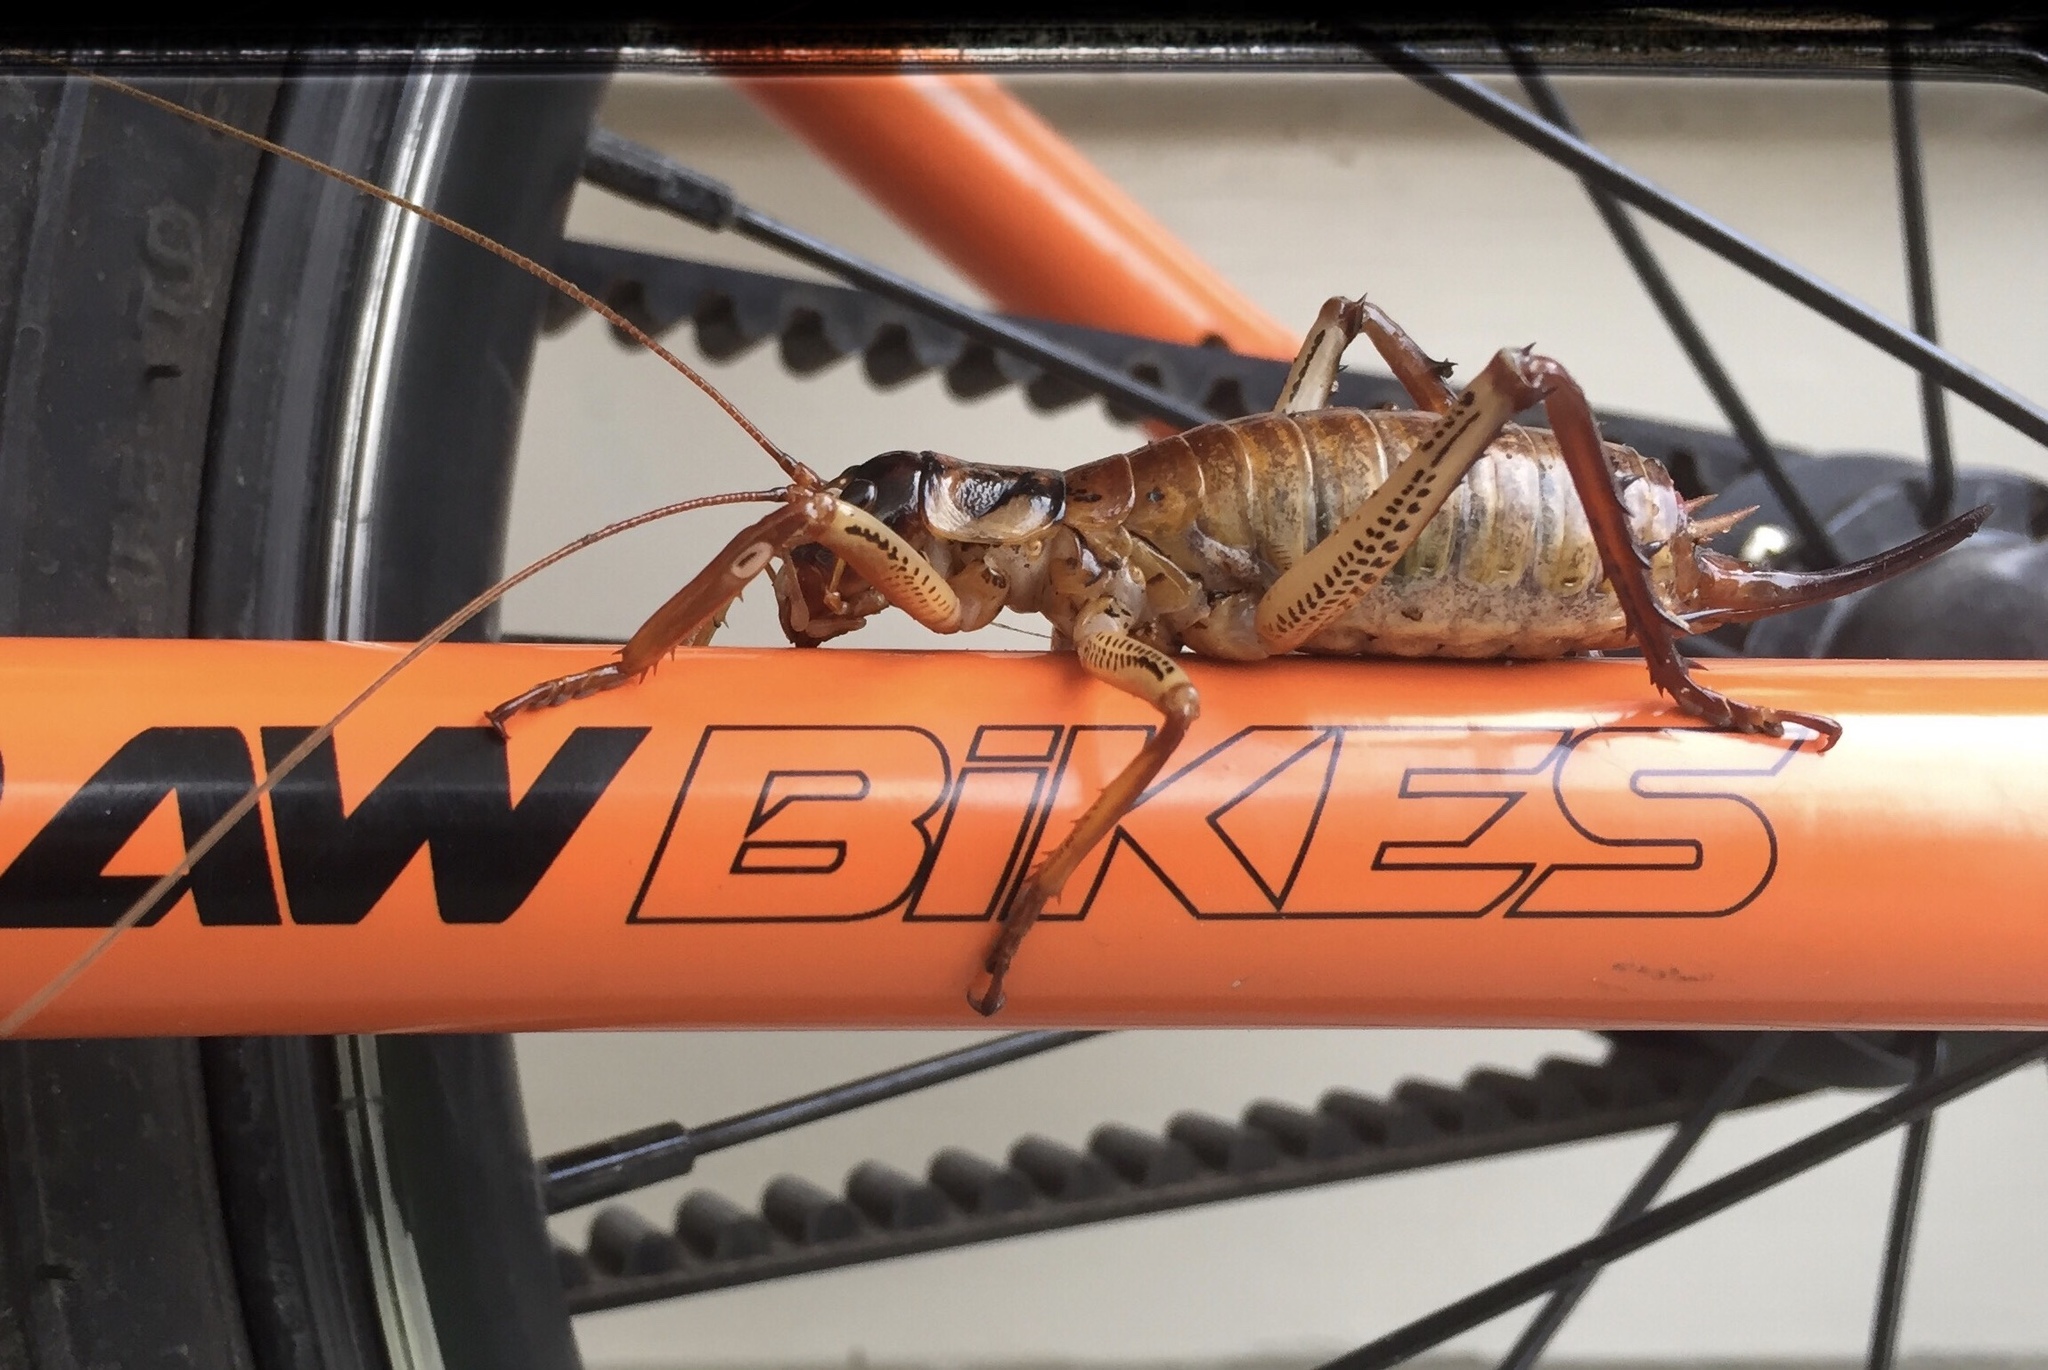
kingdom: Animalia
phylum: Arthropoda
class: Insecta
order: Orthoptera
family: Anostostomatidae
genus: Hemideina
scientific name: Hemideina thoracica
